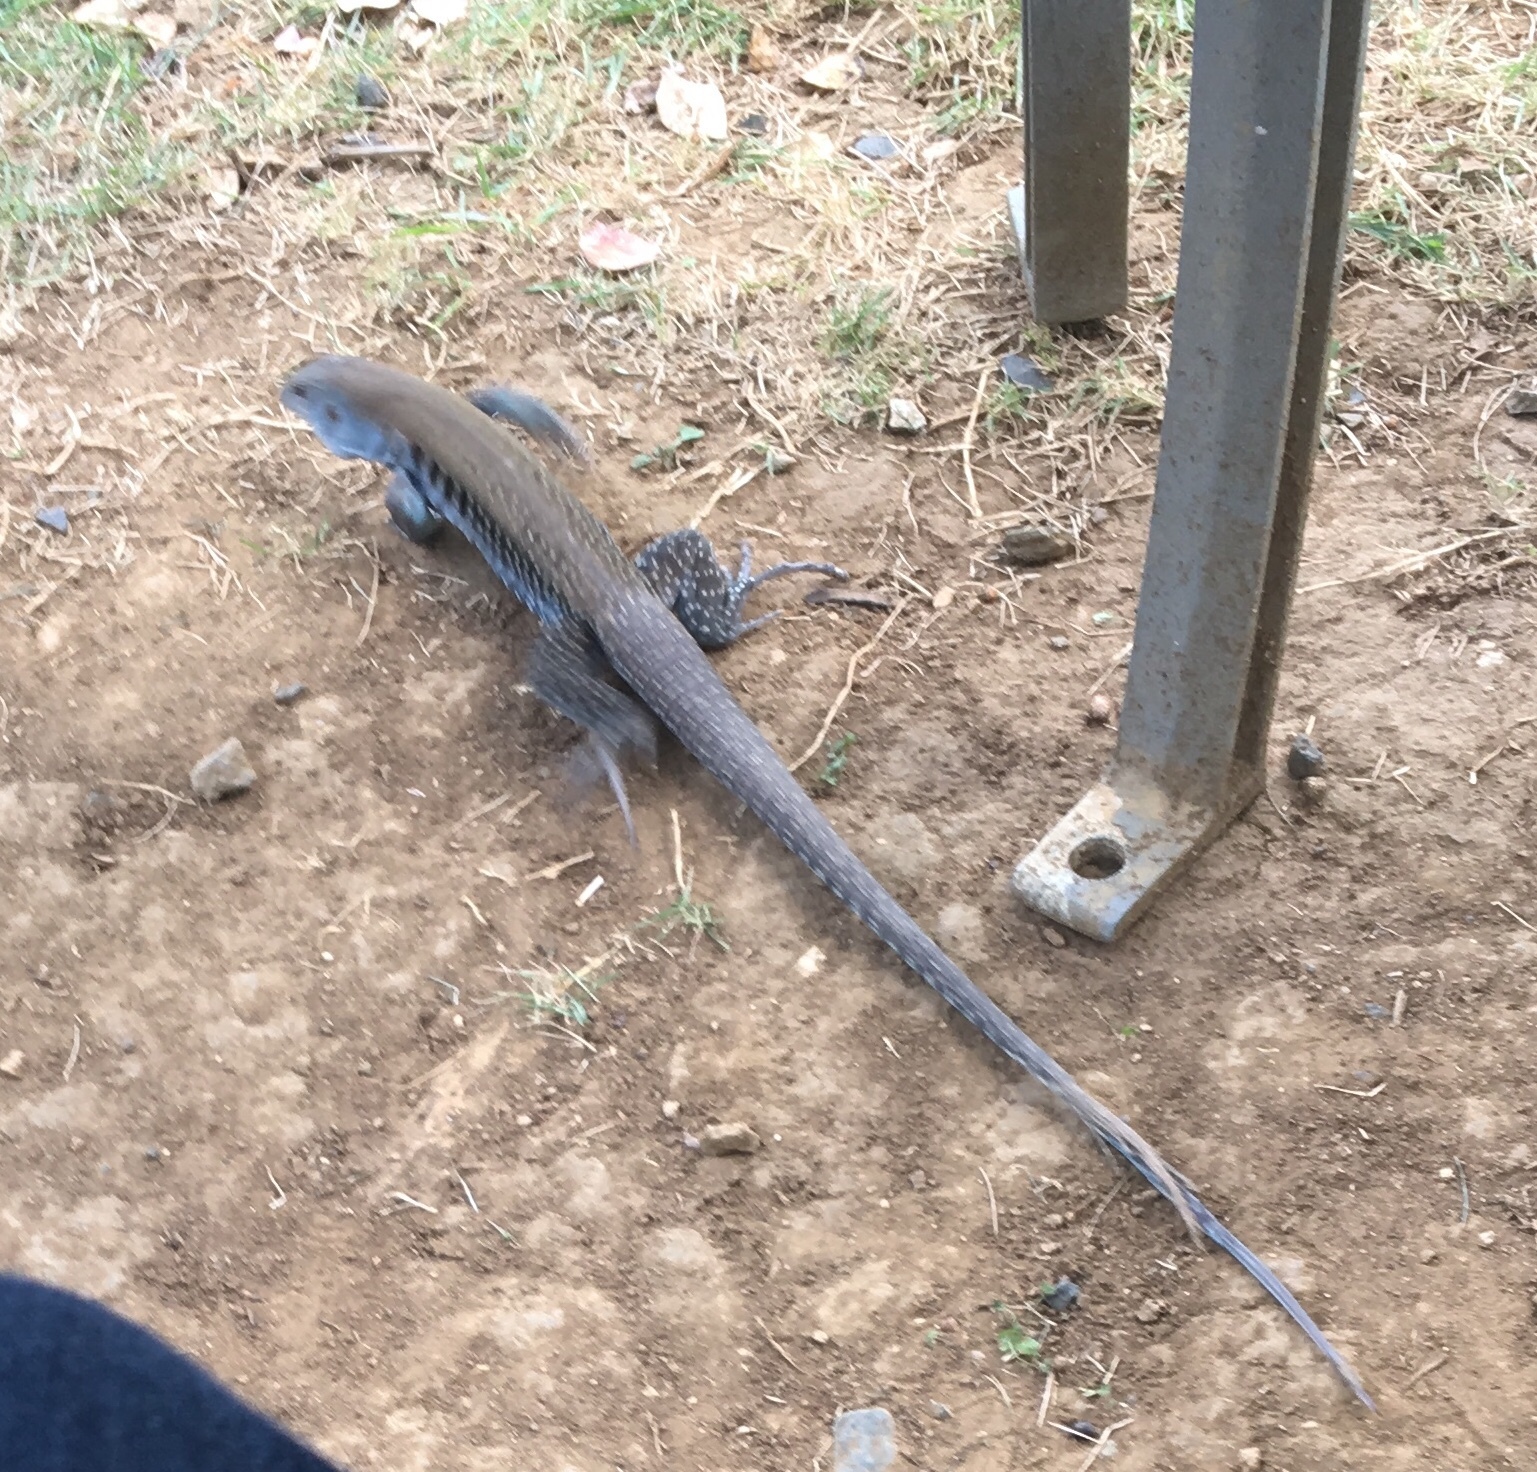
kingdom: Animalia
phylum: Chordata
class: Squamata
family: Teiidae
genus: Pholidoscelis
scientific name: Pholidoscelis exsul
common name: Common puerto rican ameiva
